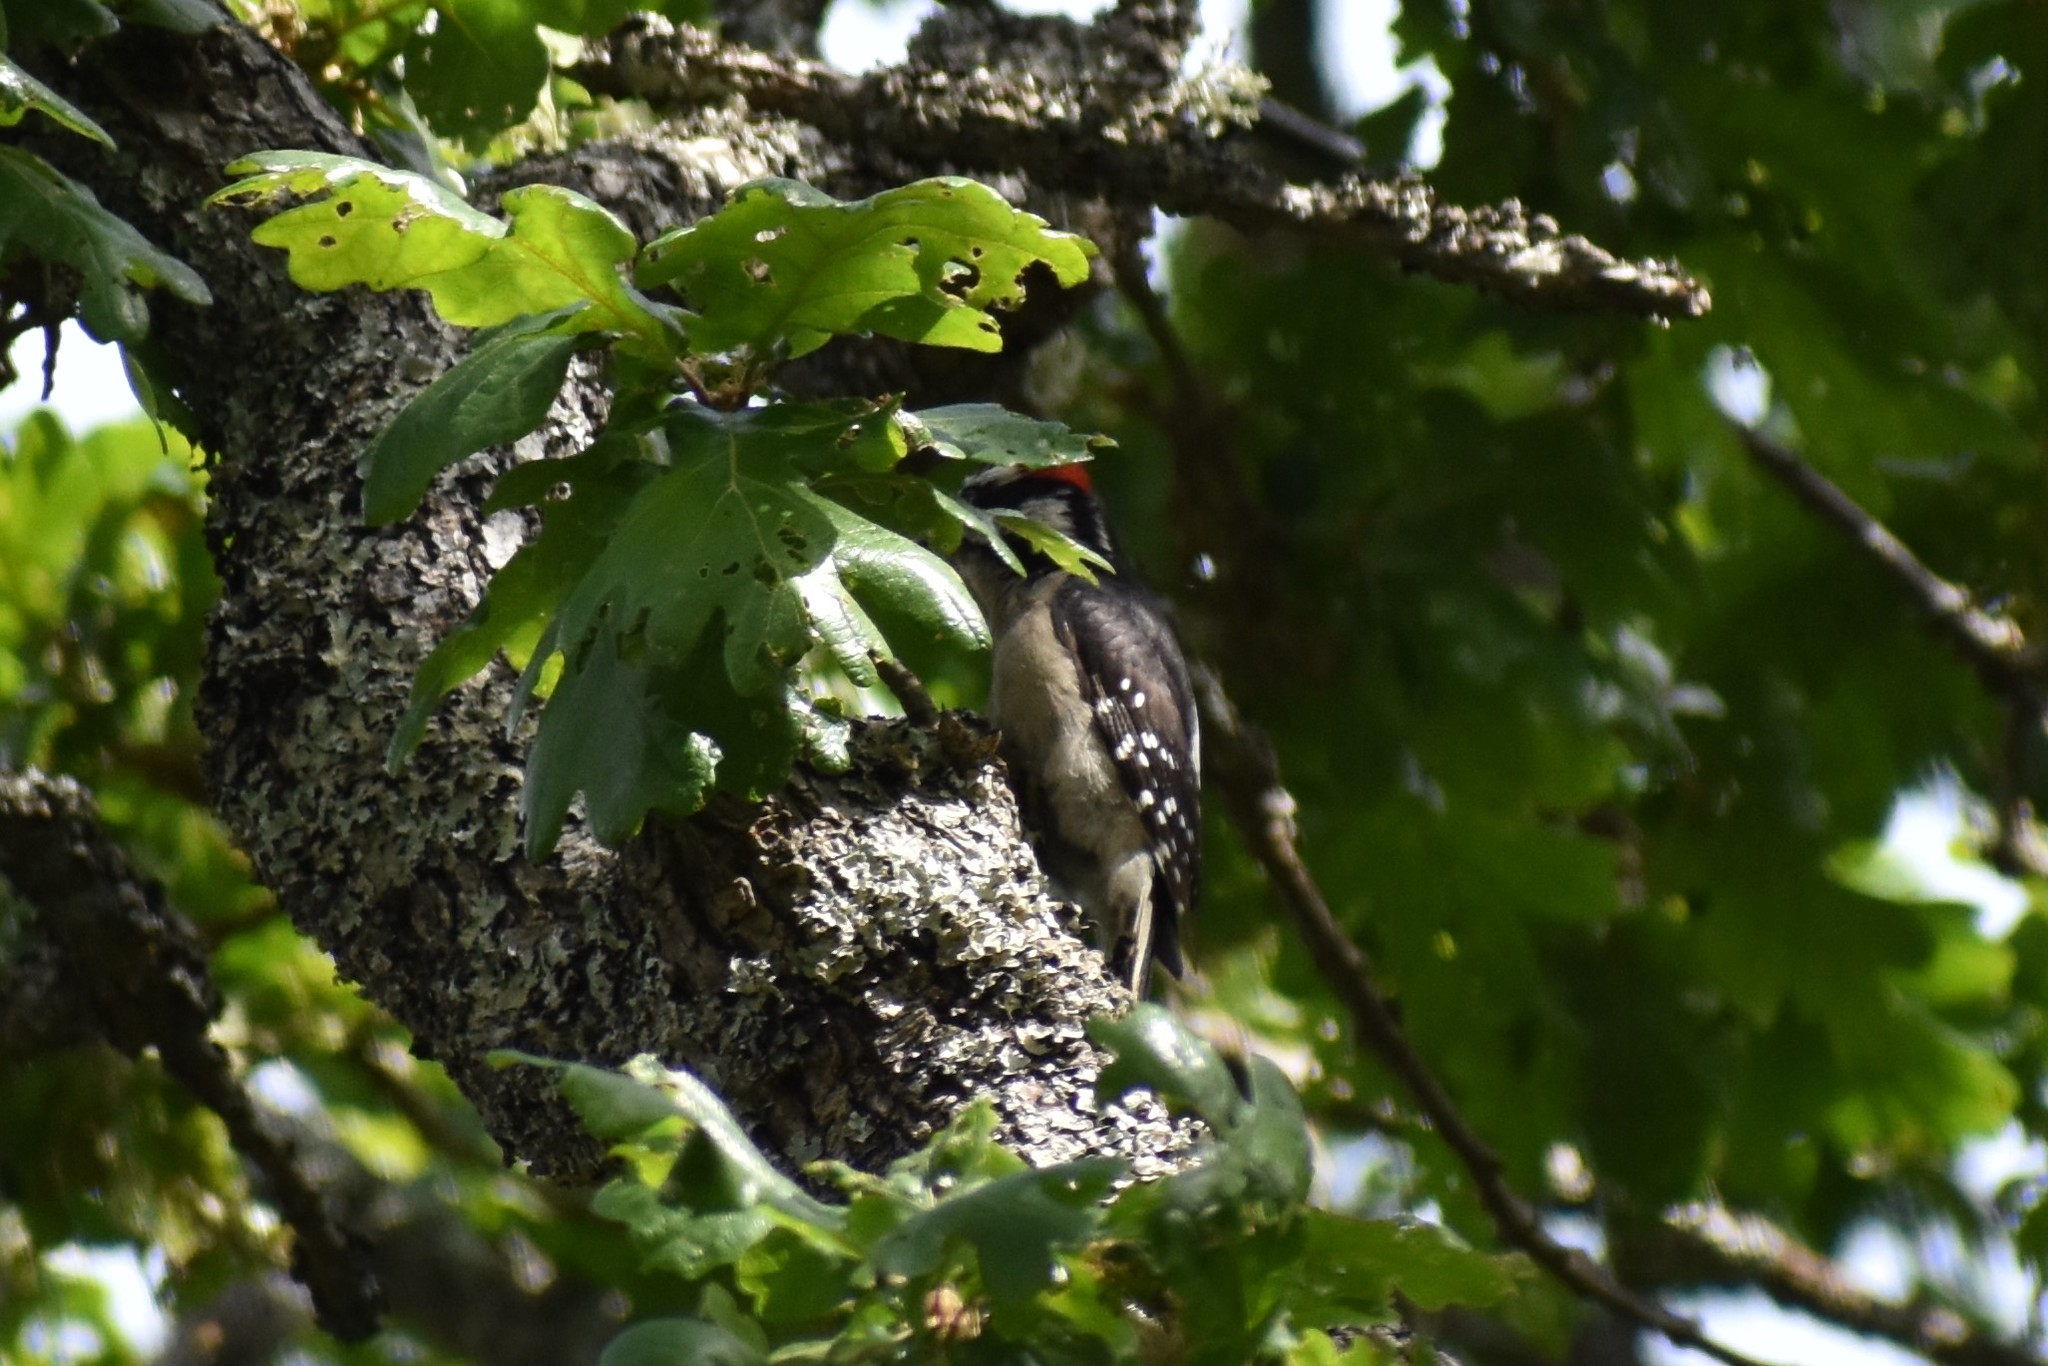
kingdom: Animalia
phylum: Chordata
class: Aves
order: Piciformes
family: Picidae
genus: Dryobates
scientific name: Dryobates pubescens
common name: Downy woodpecker
